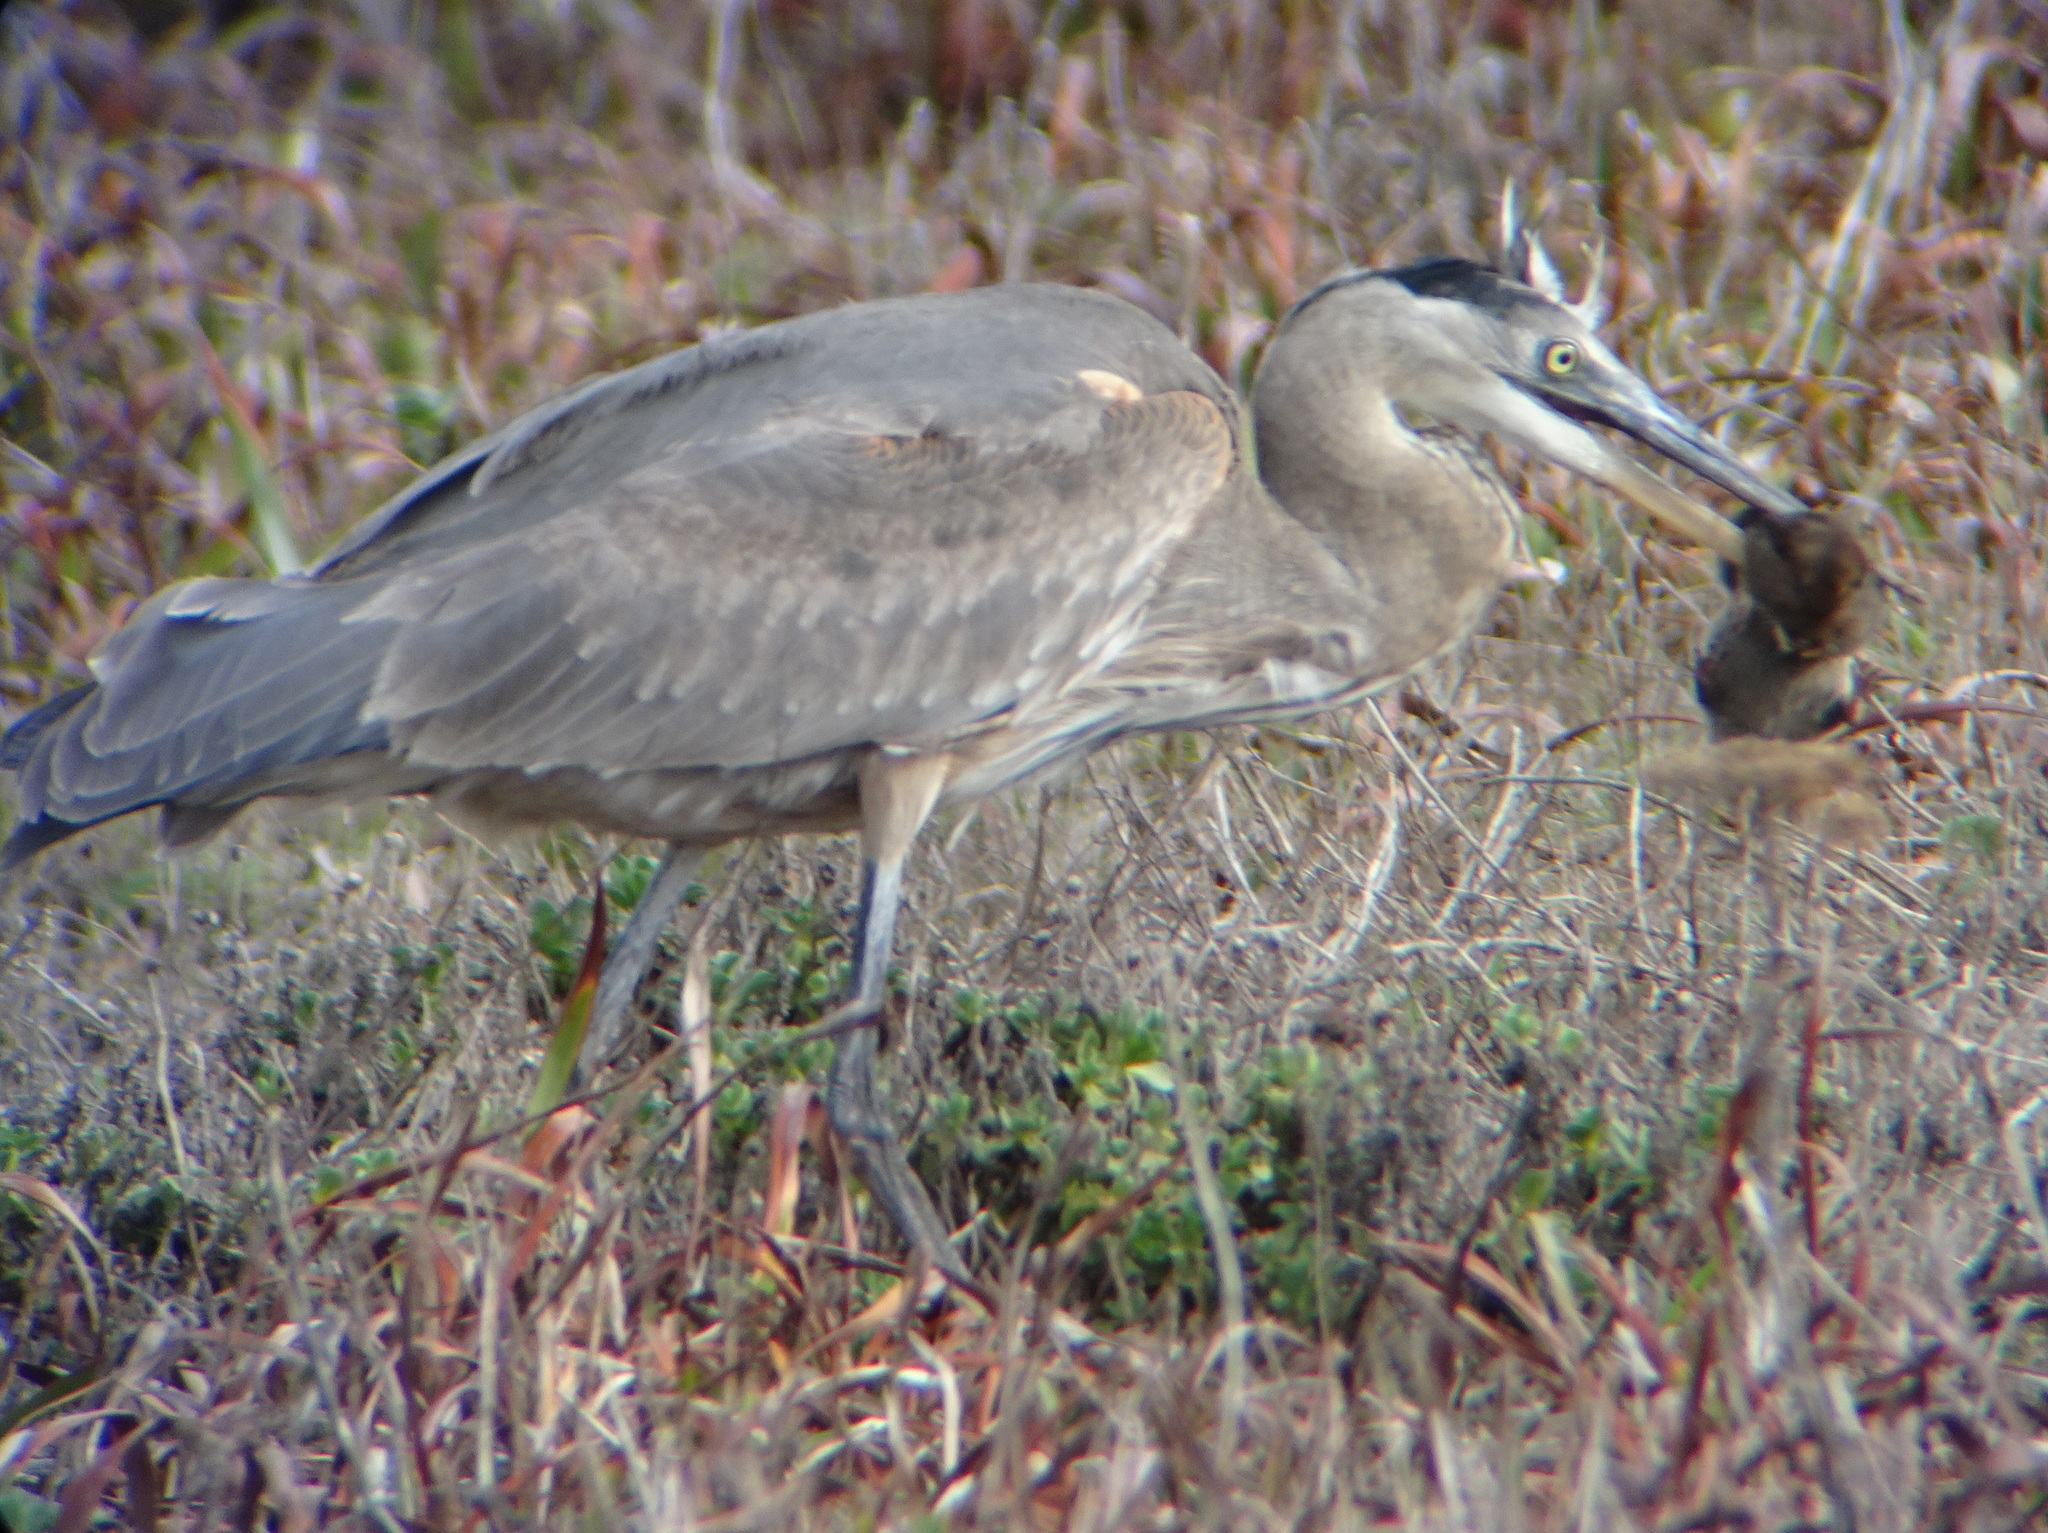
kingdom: Animalia
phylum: Chordata
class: Aves
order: Pelecaniformes
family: Ardeidae
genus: Ardea
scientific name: Ardea herodias
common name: Great blue heron
